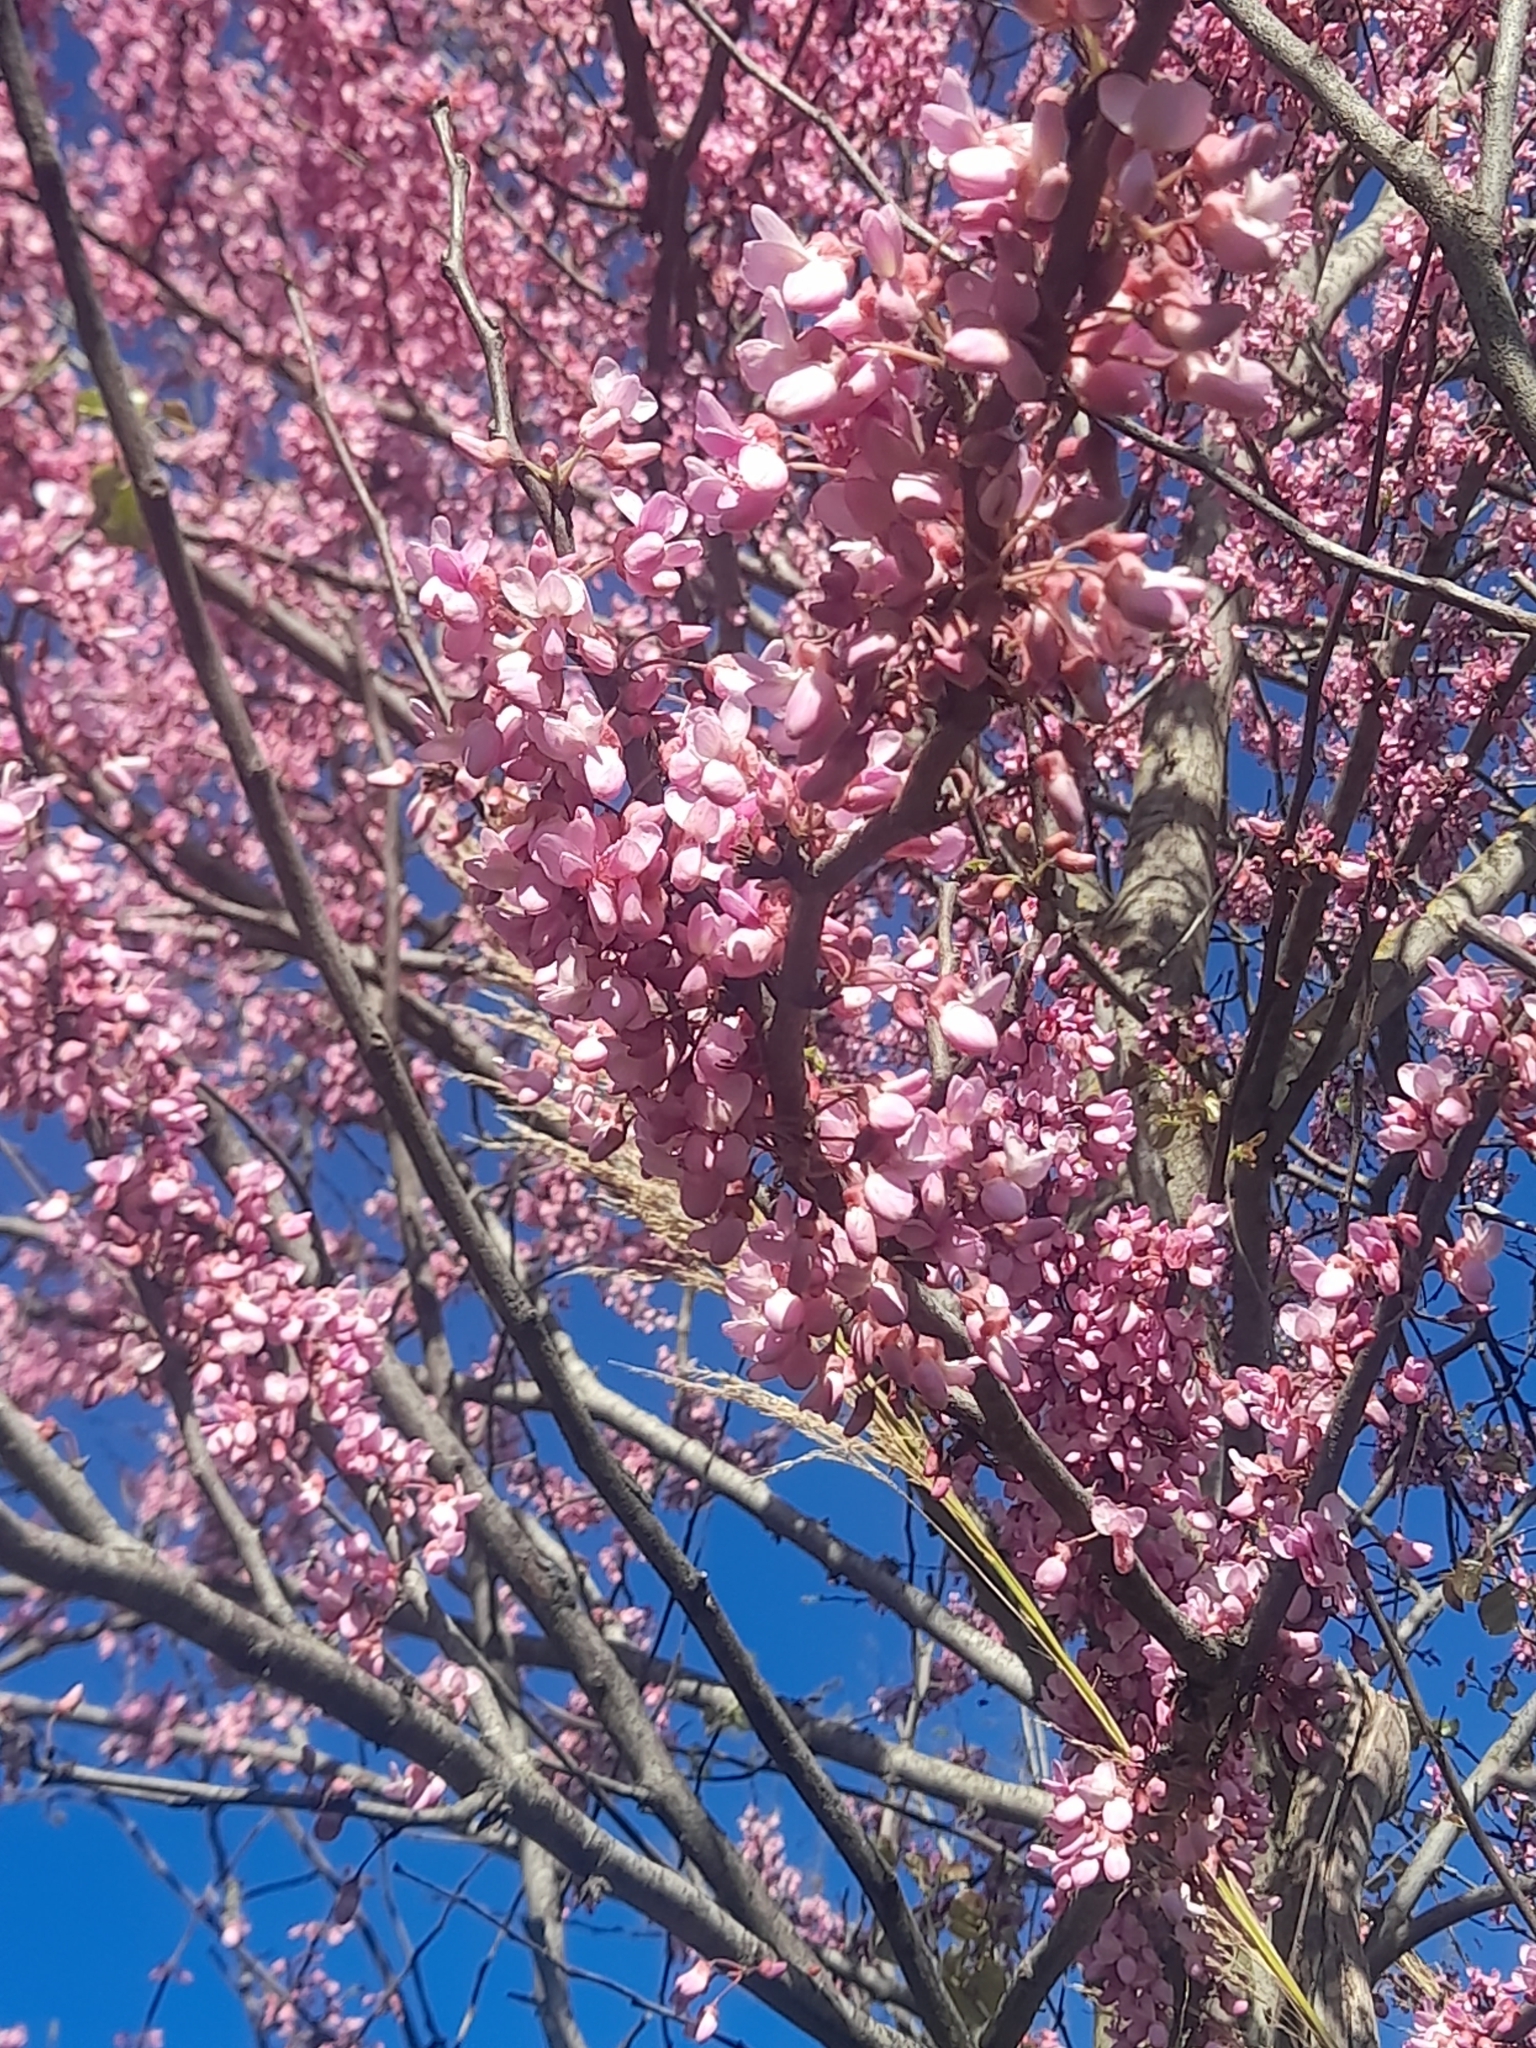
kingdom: Plantae
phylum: Tracheophyta
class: Magnoliopsida
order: Fabales
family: Fabaceae
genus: Cercis
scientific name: Cercis siliquastrum
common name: Judas tree
